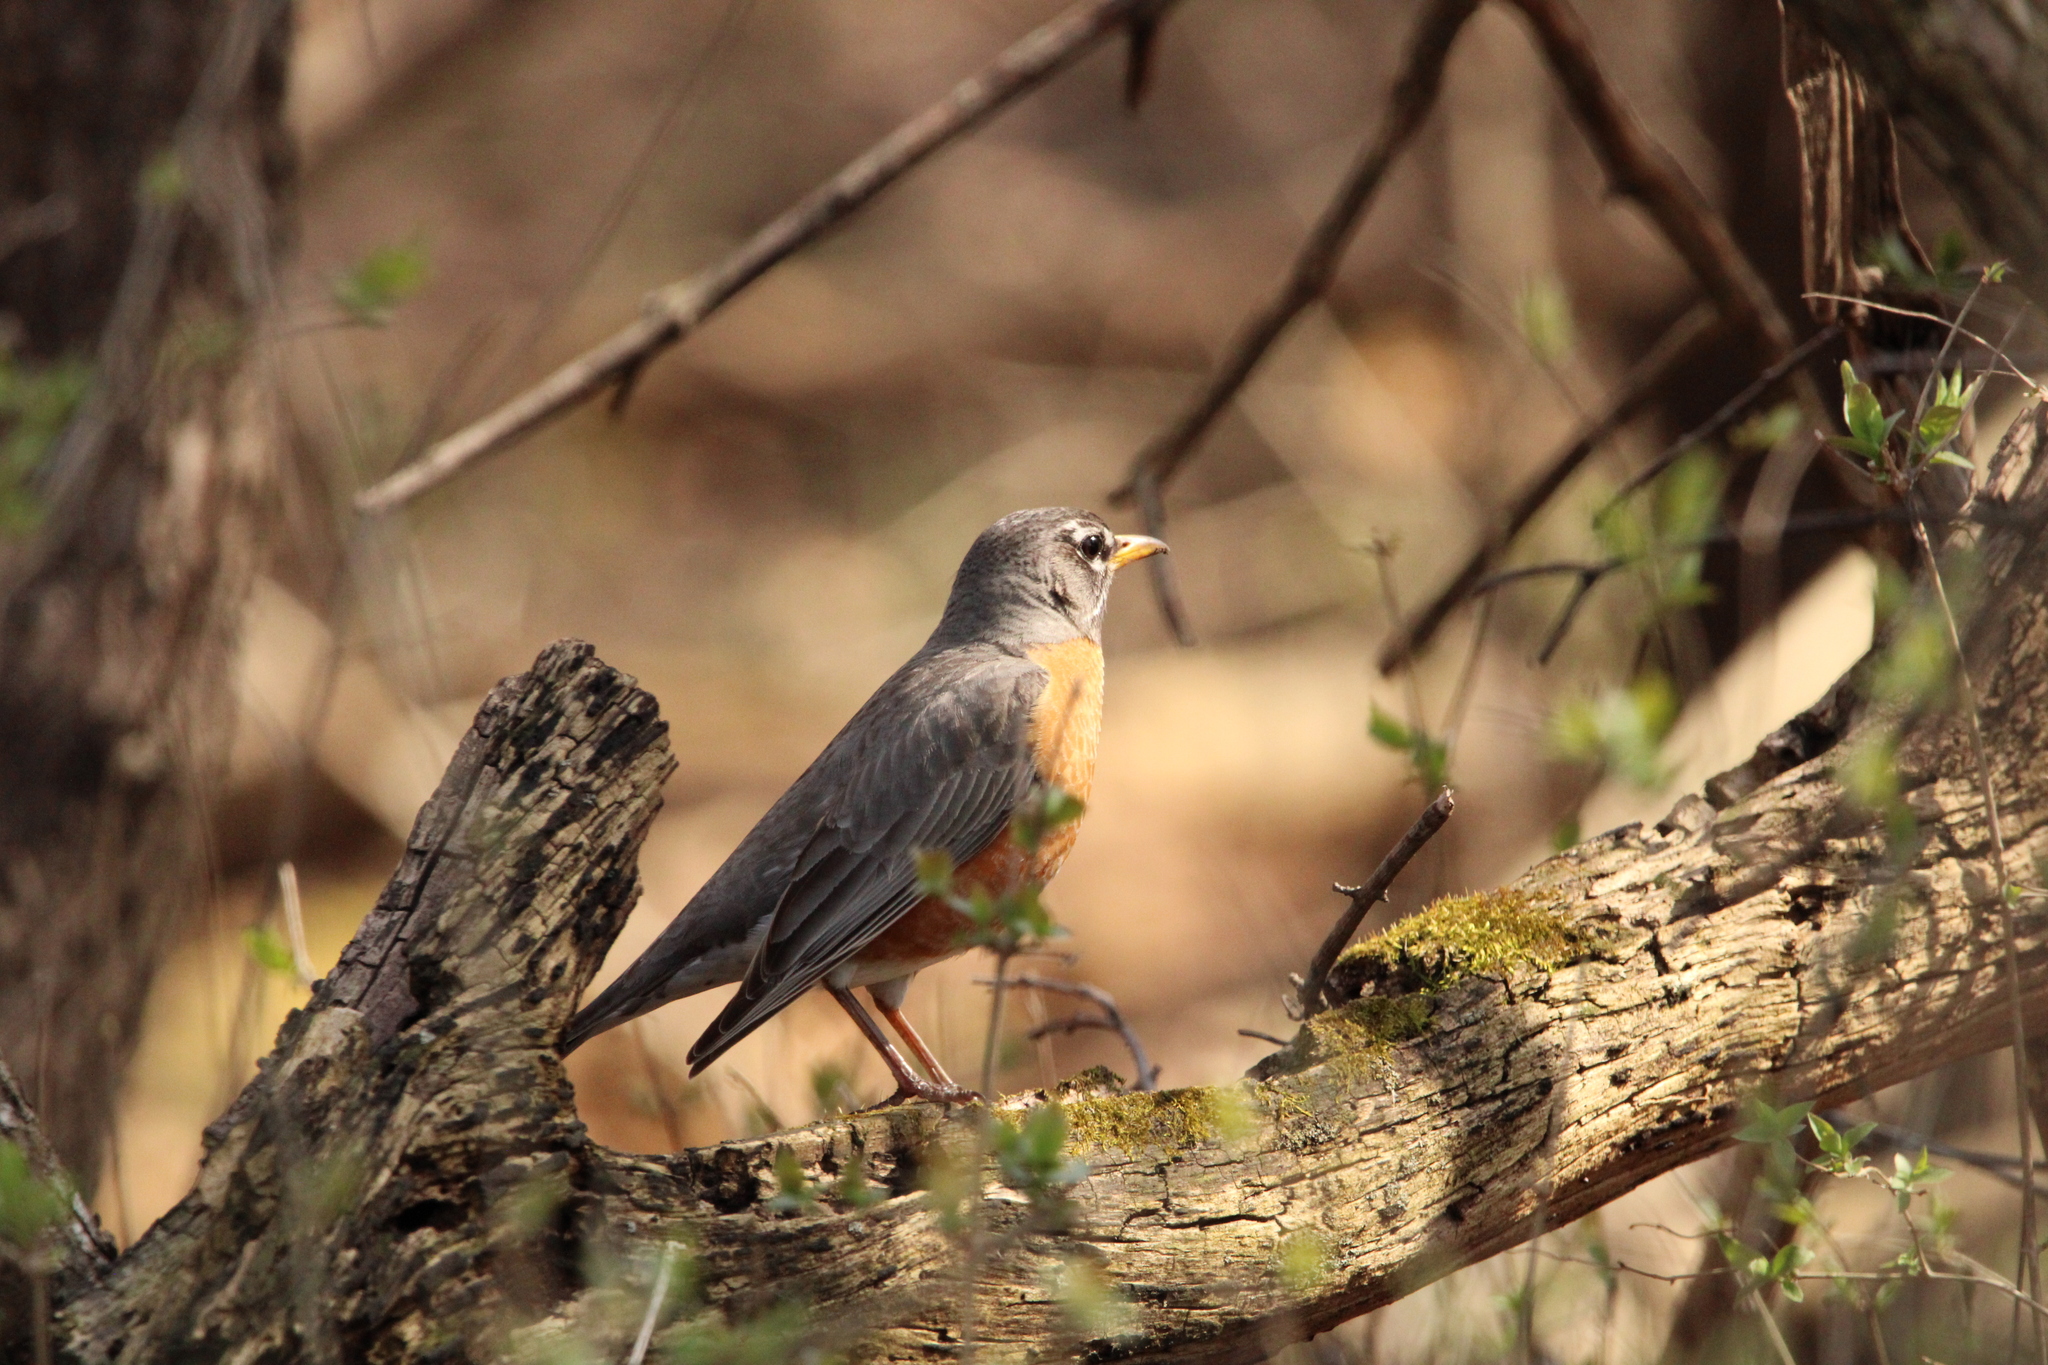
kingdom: Animalia
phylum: Chordata
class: Aves
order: Passeriformes
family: Turdidae
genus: Turdus
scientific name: Turdus migratorius
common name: American robin
